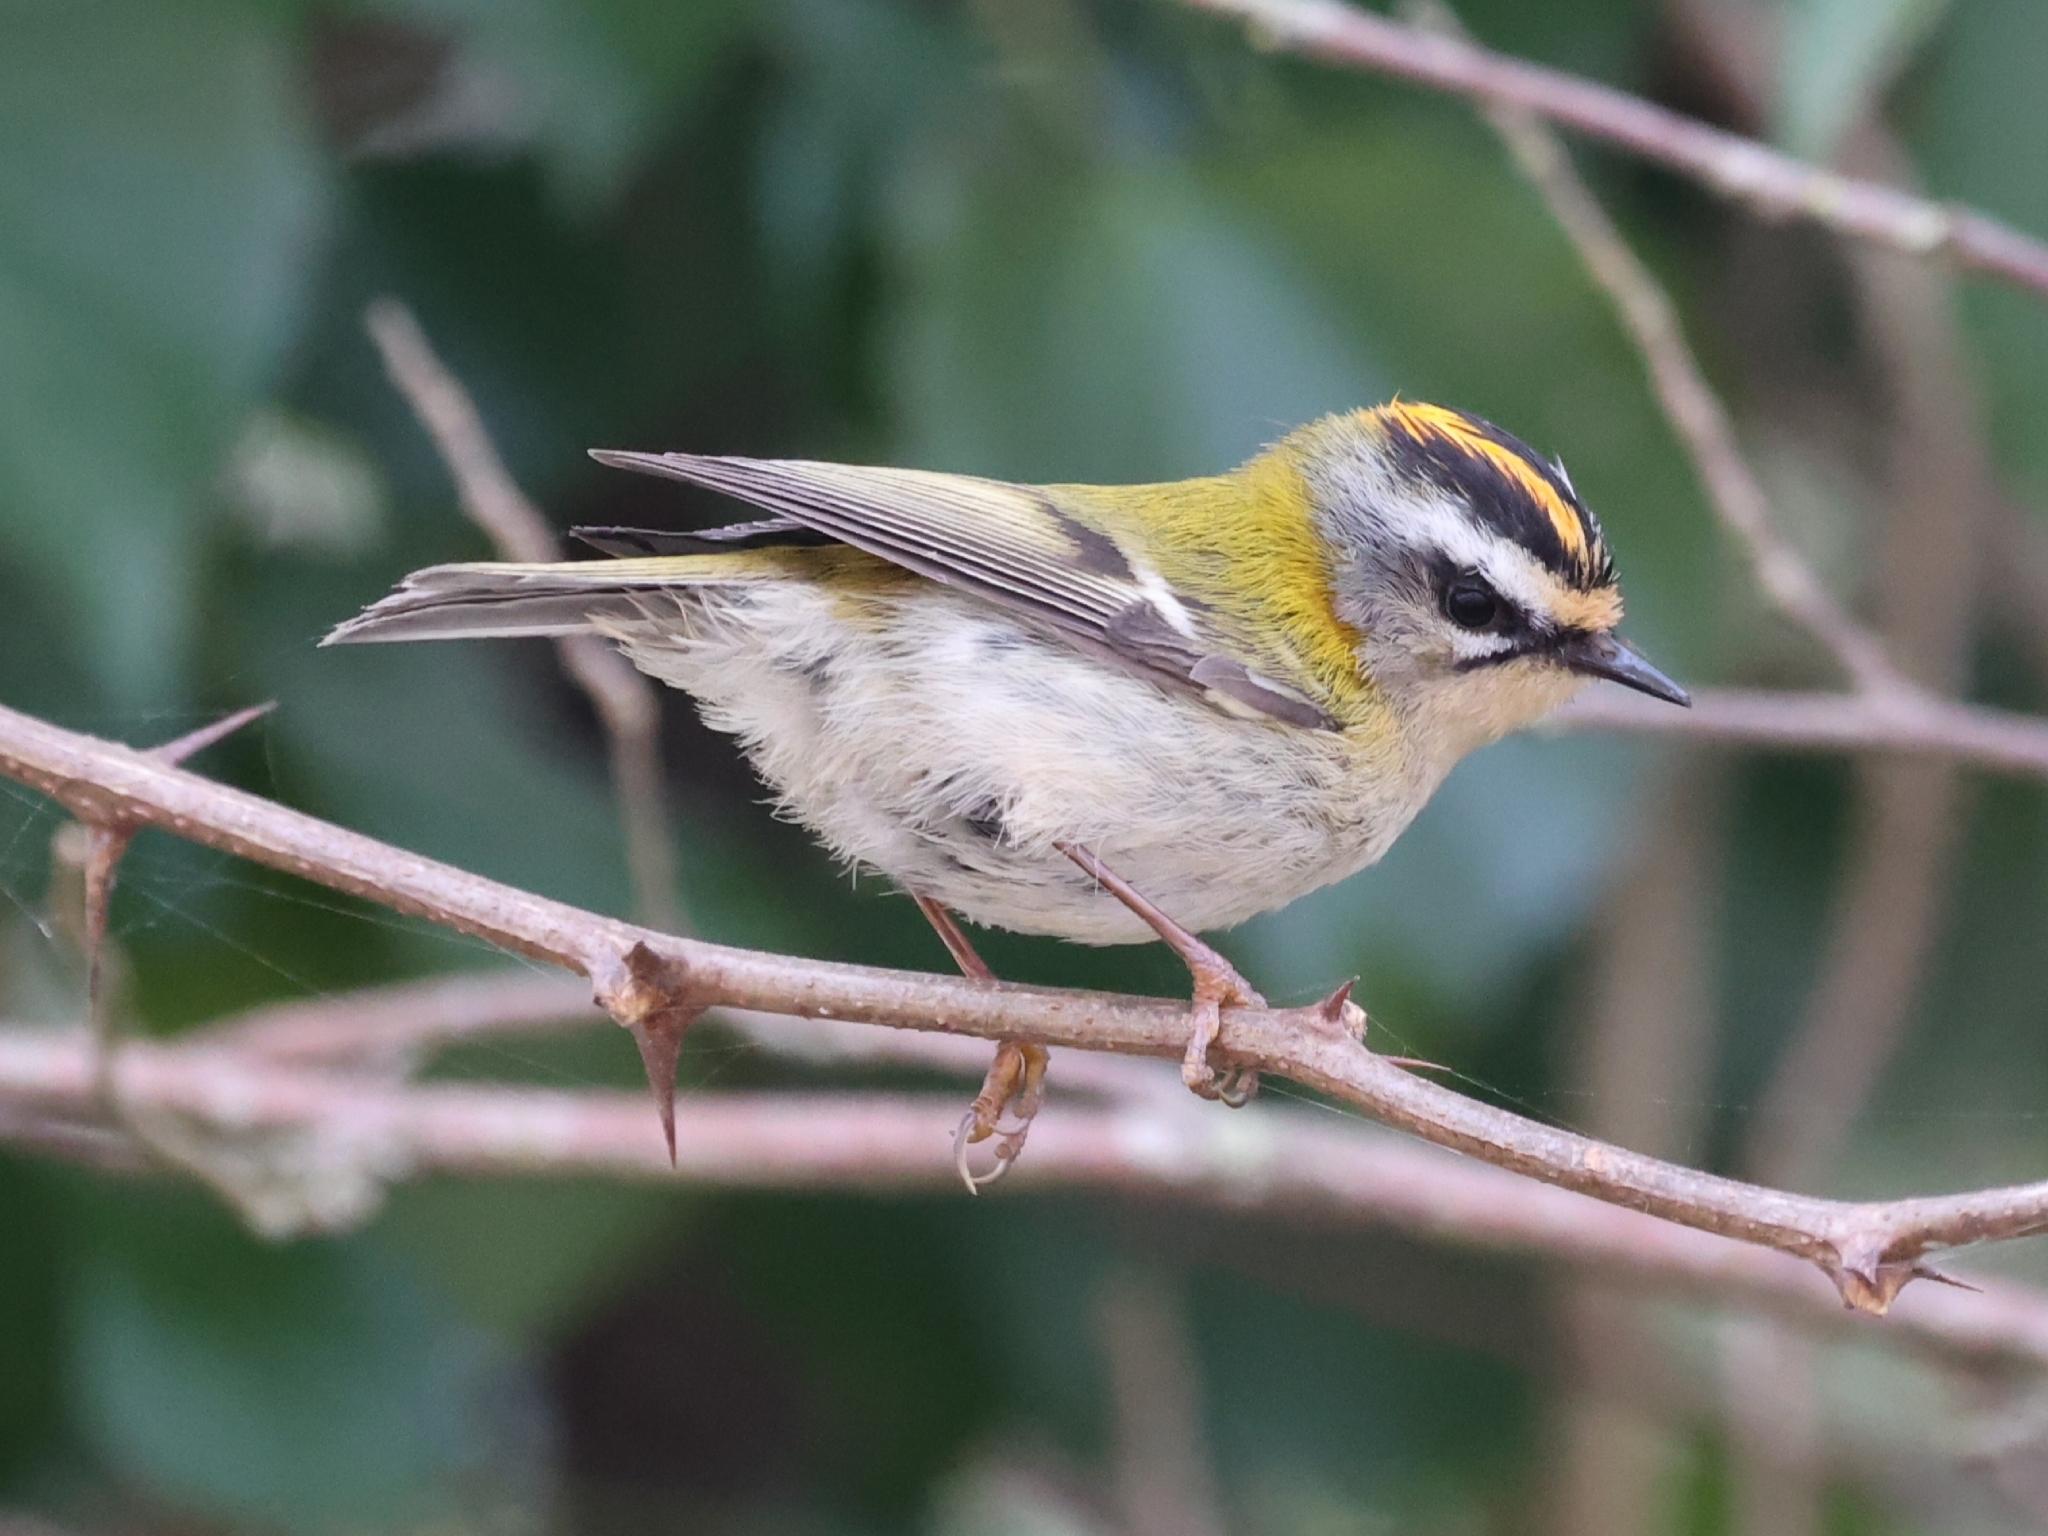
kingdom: Animalia
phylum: Chordata
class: Aves
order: Passeriformes
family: Regulidae
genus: Regulus
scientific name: Regulus ignicapilla
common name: Firecrest
